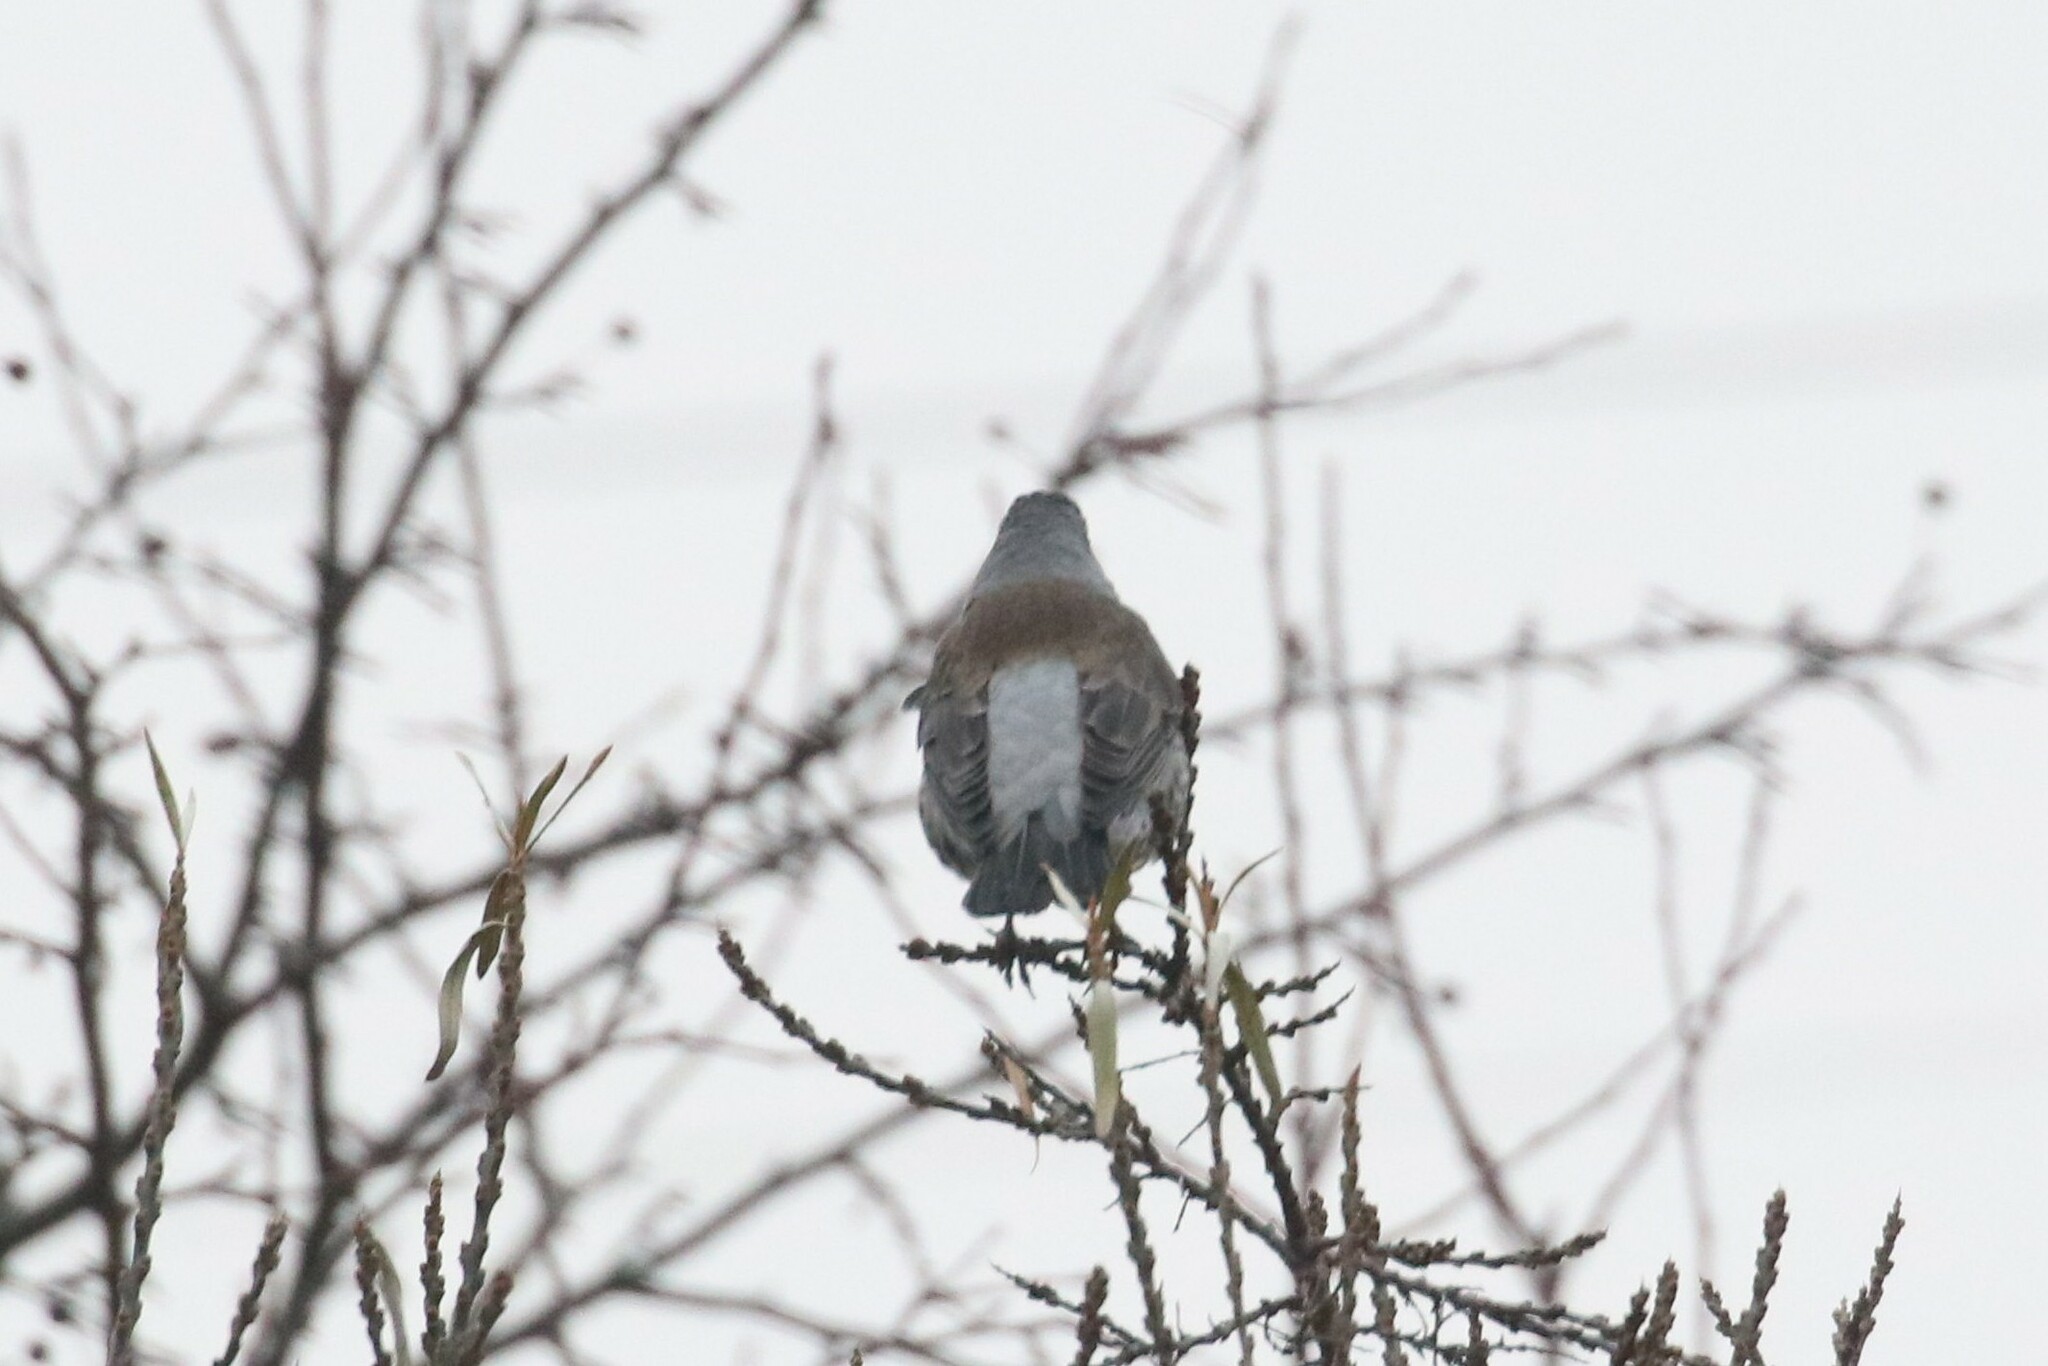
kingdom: Animalia
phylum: Chordata
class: Aves
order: Passeriformes
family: Turdidae
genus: Turdus
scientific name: Turdus pilaris
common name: Fieldfare
